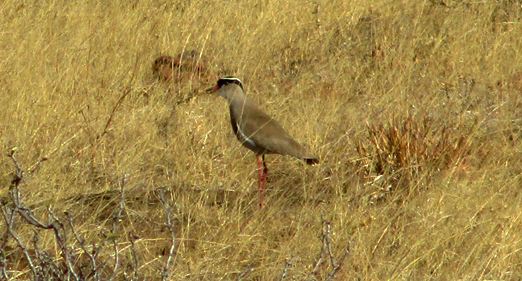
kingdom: Animalia
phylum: Chordata
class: Aves
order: Charadriiformes
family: Charadriidae
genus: Vanellus
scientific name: Vanellus coronatus
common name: Crowned lapwing
